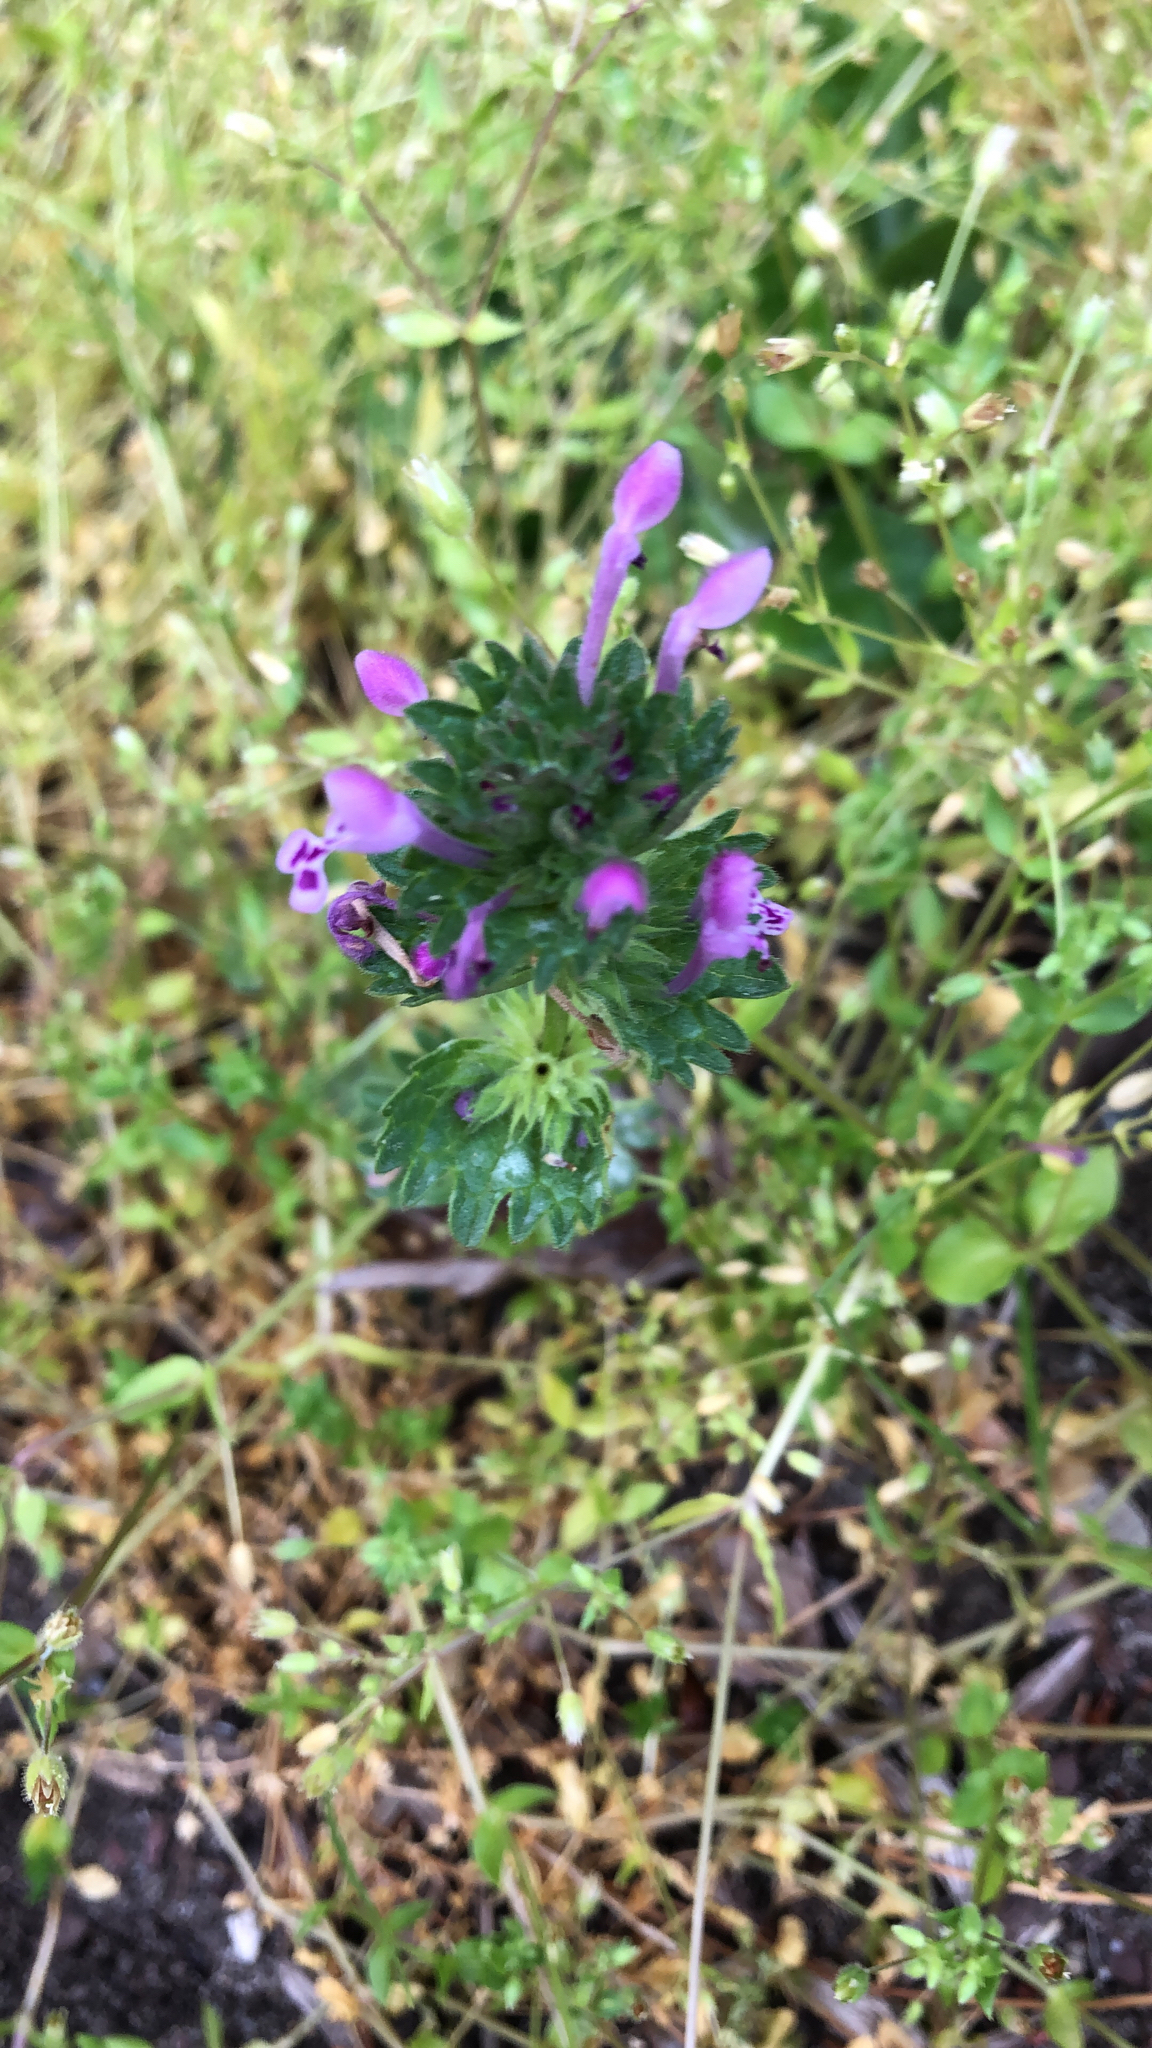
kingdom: Plantae
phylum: Tracheophyta
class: Magnoliopsida
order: Lamiales
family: Lamiaceae
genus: Lamium
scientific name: Lamium amplexicaule
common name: Henbit dead-nettle
